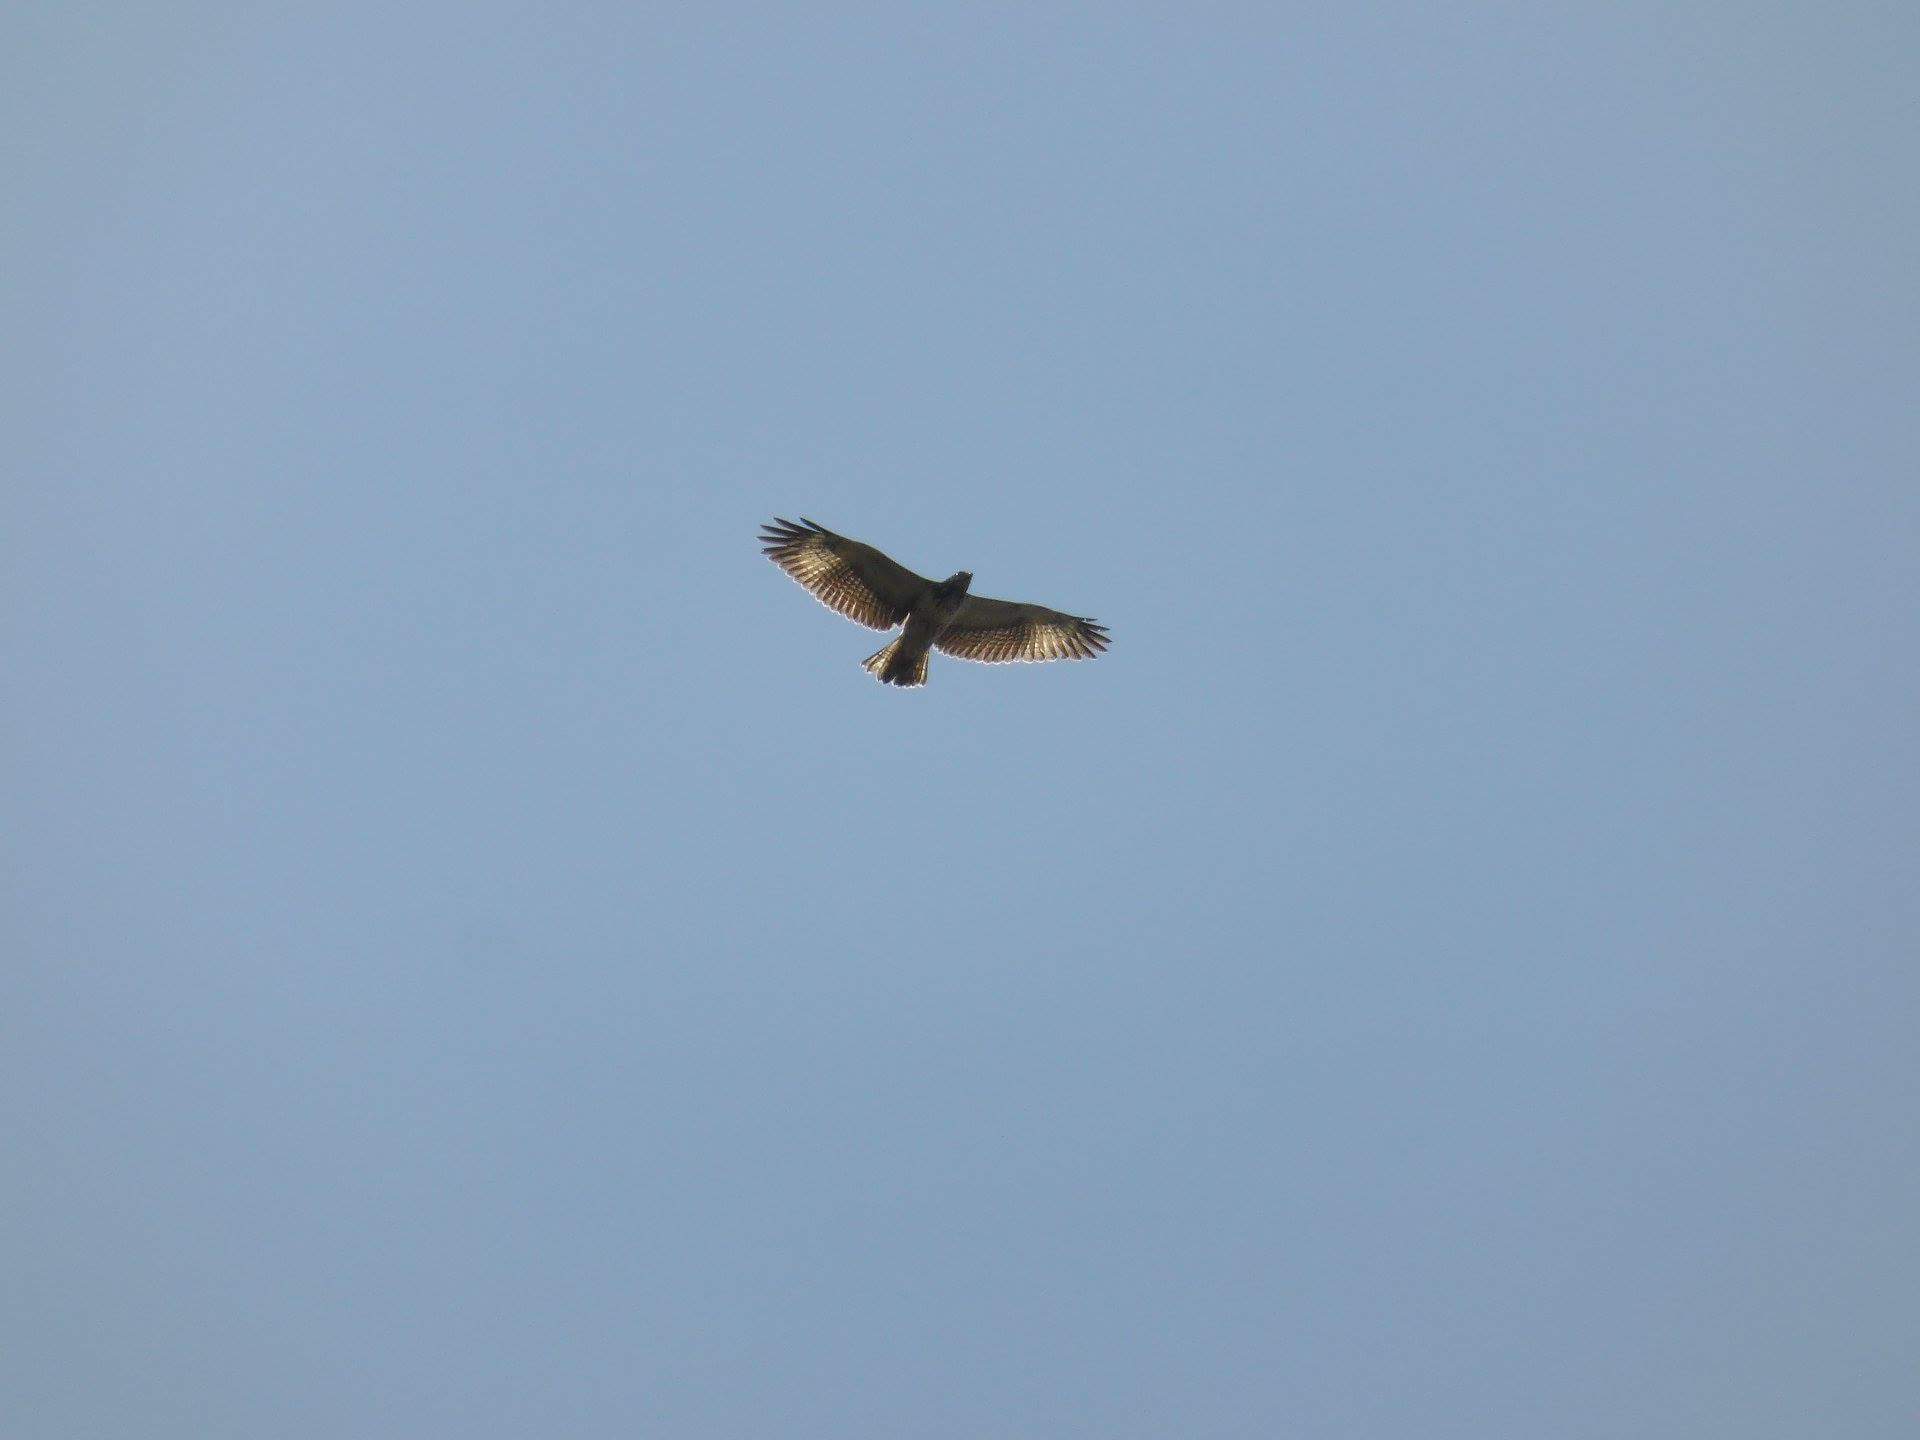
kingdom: Animalia
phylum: Chordata
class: Aves
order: Accipitriformes
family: Accipitridae
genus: Buteogallus
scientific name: Buteogallus aequinoctialis
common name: Rufous crab hawk
